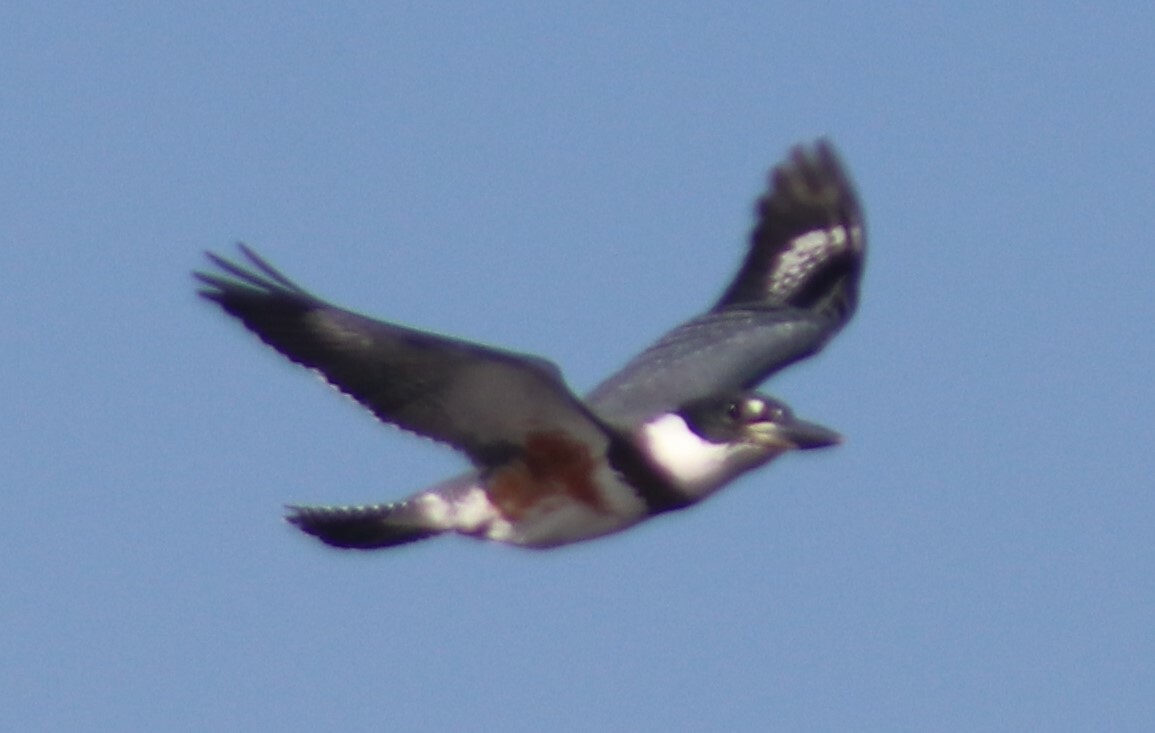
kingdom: Animalia
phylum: Chordata
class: Aves
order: Coraciiformes
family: Alcedinidae
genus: Megaceryle
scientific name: Megaceryle alcyon
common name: Belted kingfisher
